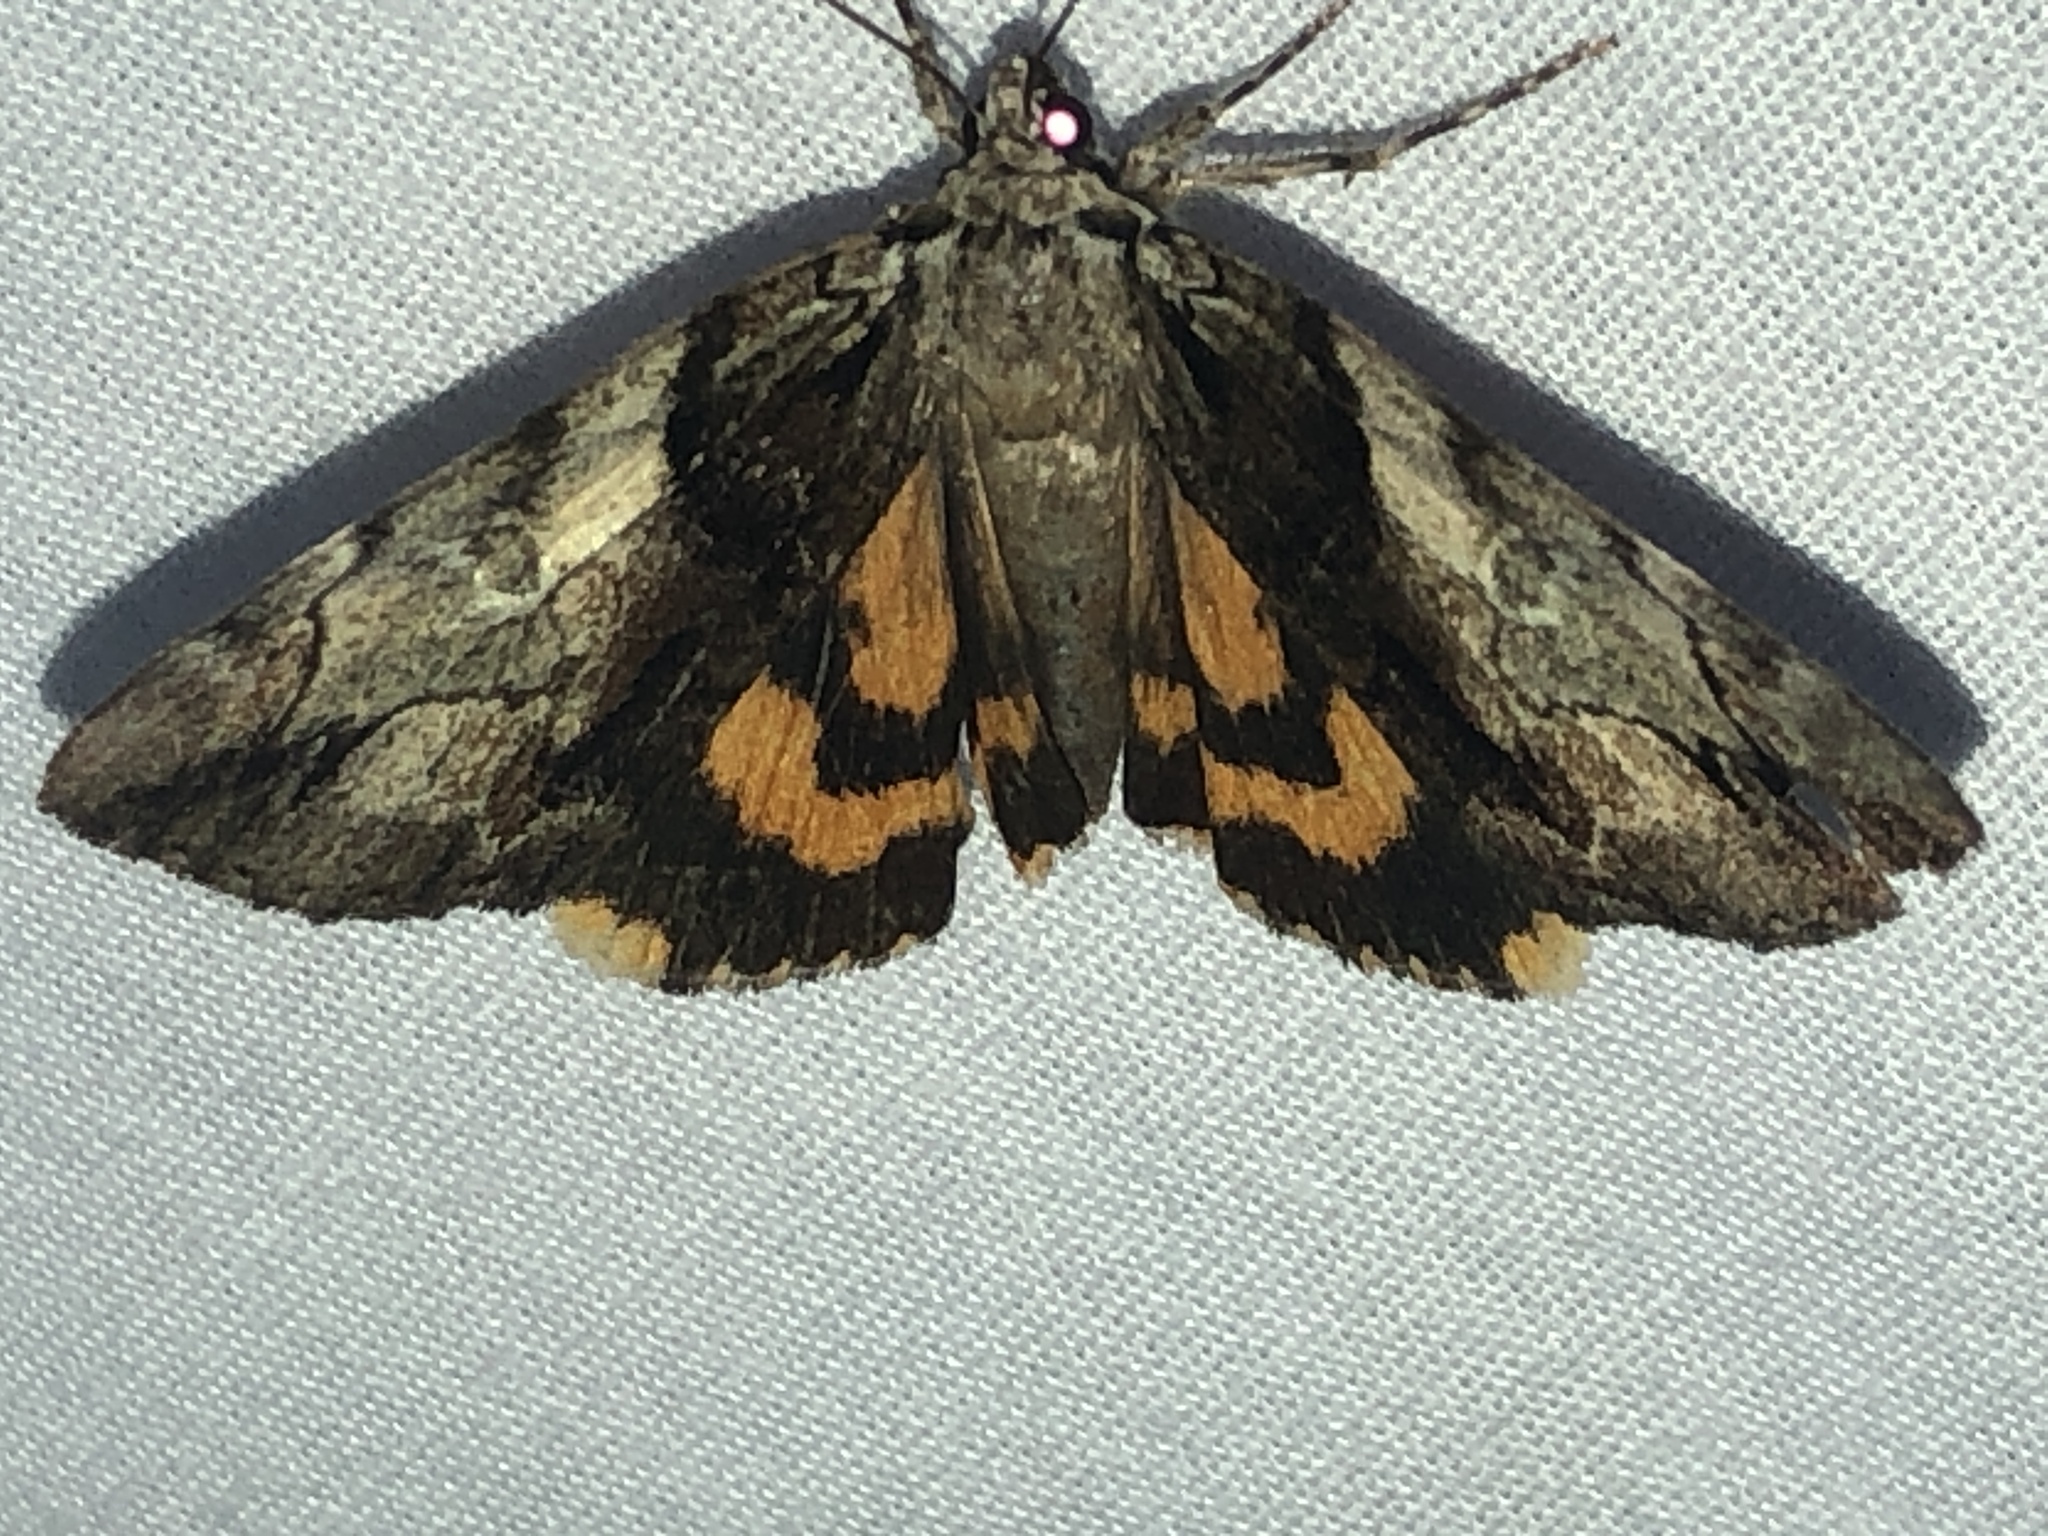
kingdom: Animalia
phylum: Arthropoda
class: Insecta
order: Lepidoptera
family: Erebidae
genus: Catocala
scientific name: Catocala crataegi
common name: Hawthorn underwing moth
